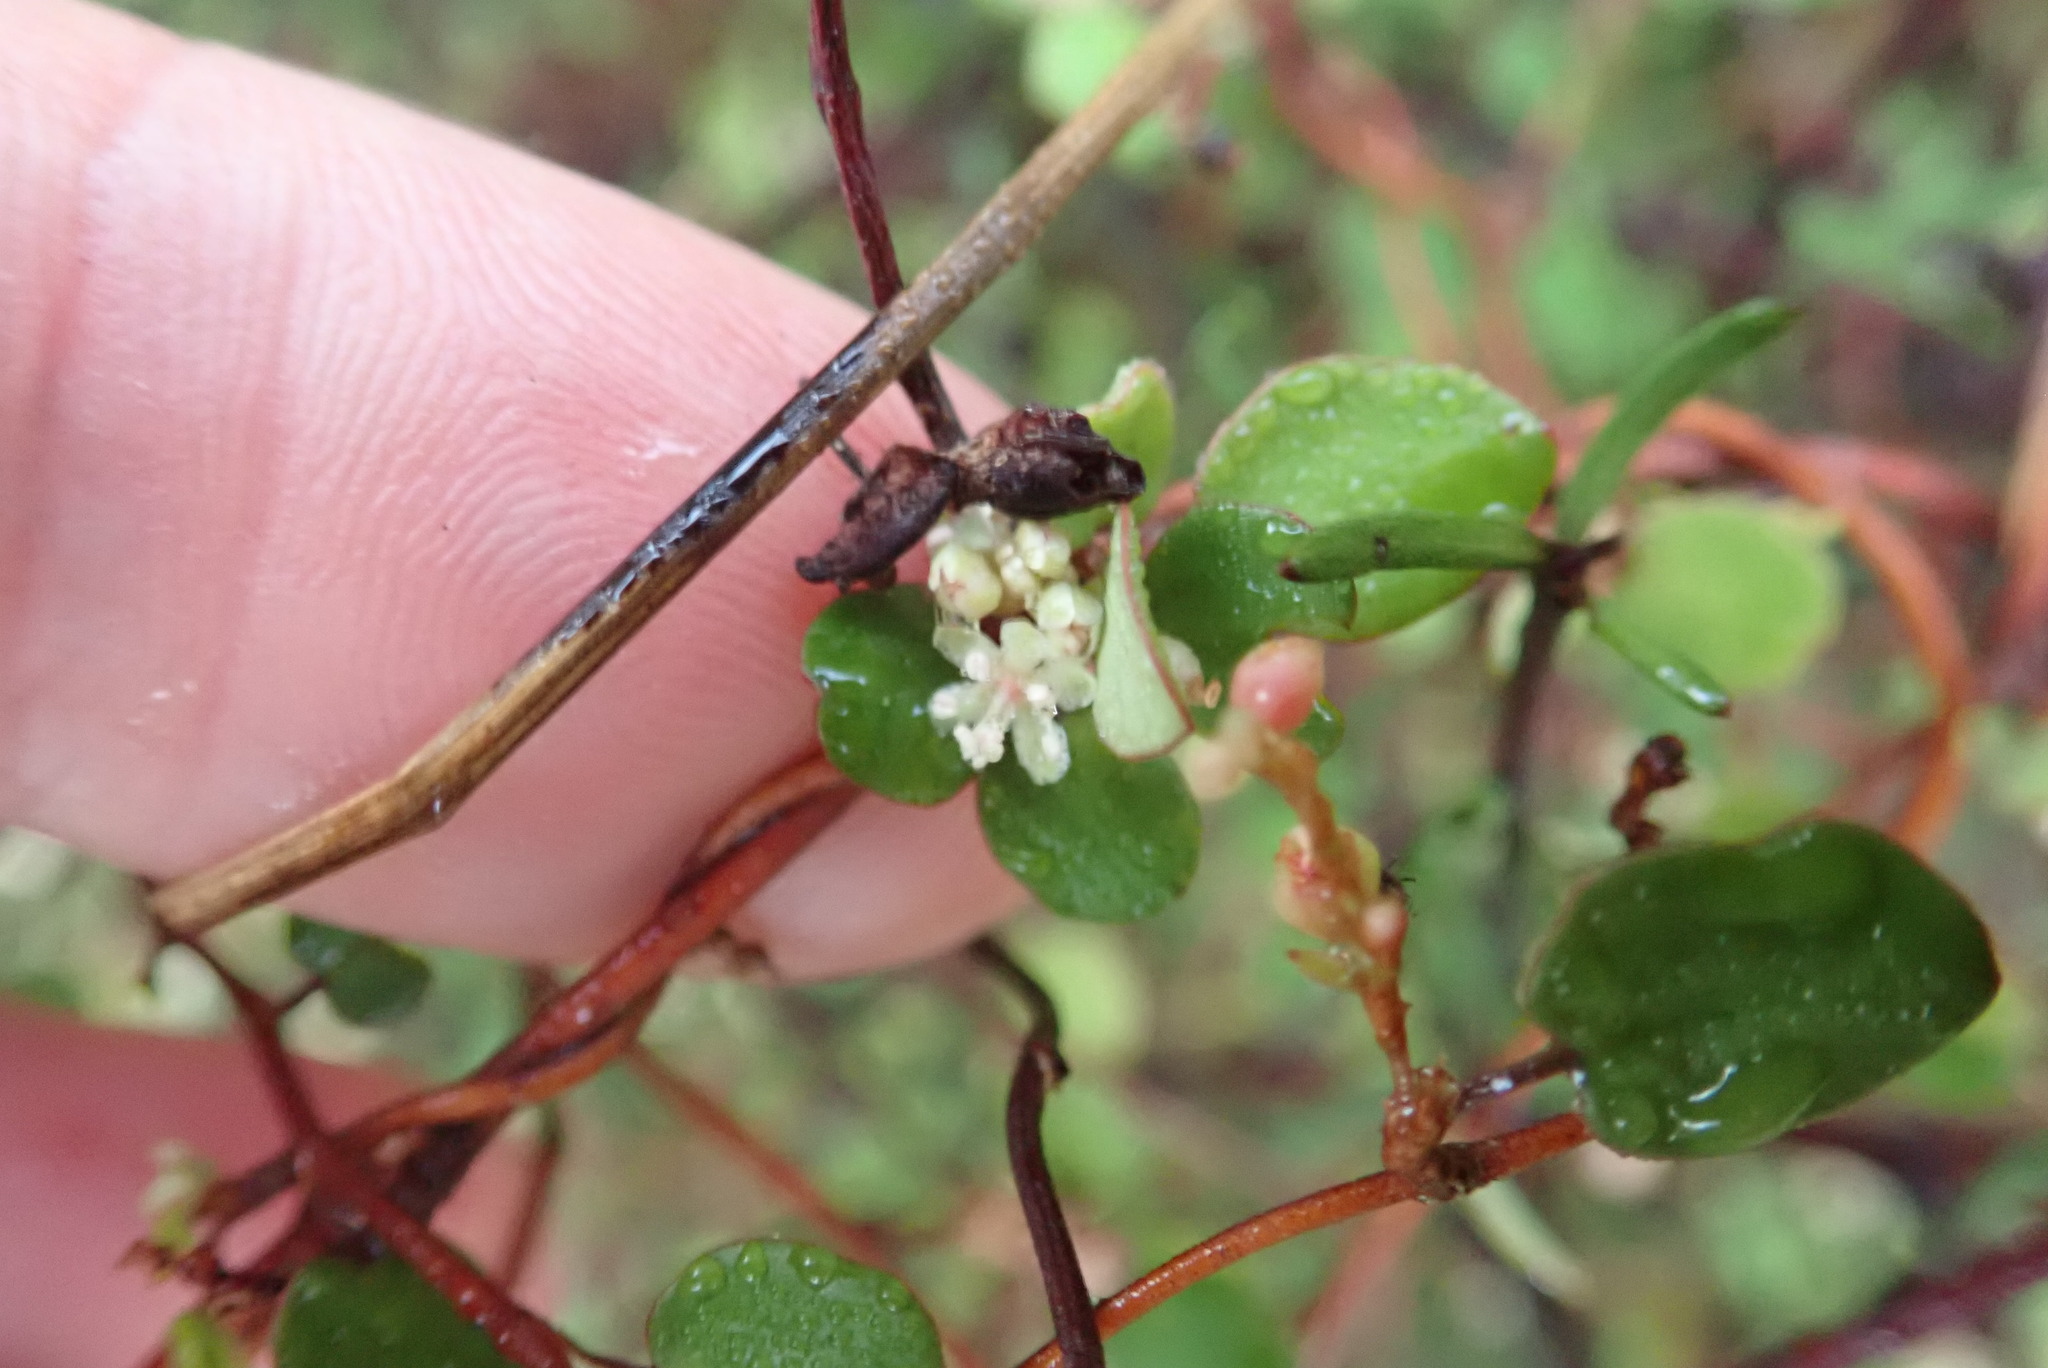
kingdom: Plantae
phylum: Tracheophyta
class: Magnoliopsida
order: Caryophyllales
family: Polygonaceae
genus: Muehlenbeckia
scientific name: Muehlenbeckia complexa
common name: Wireplant
